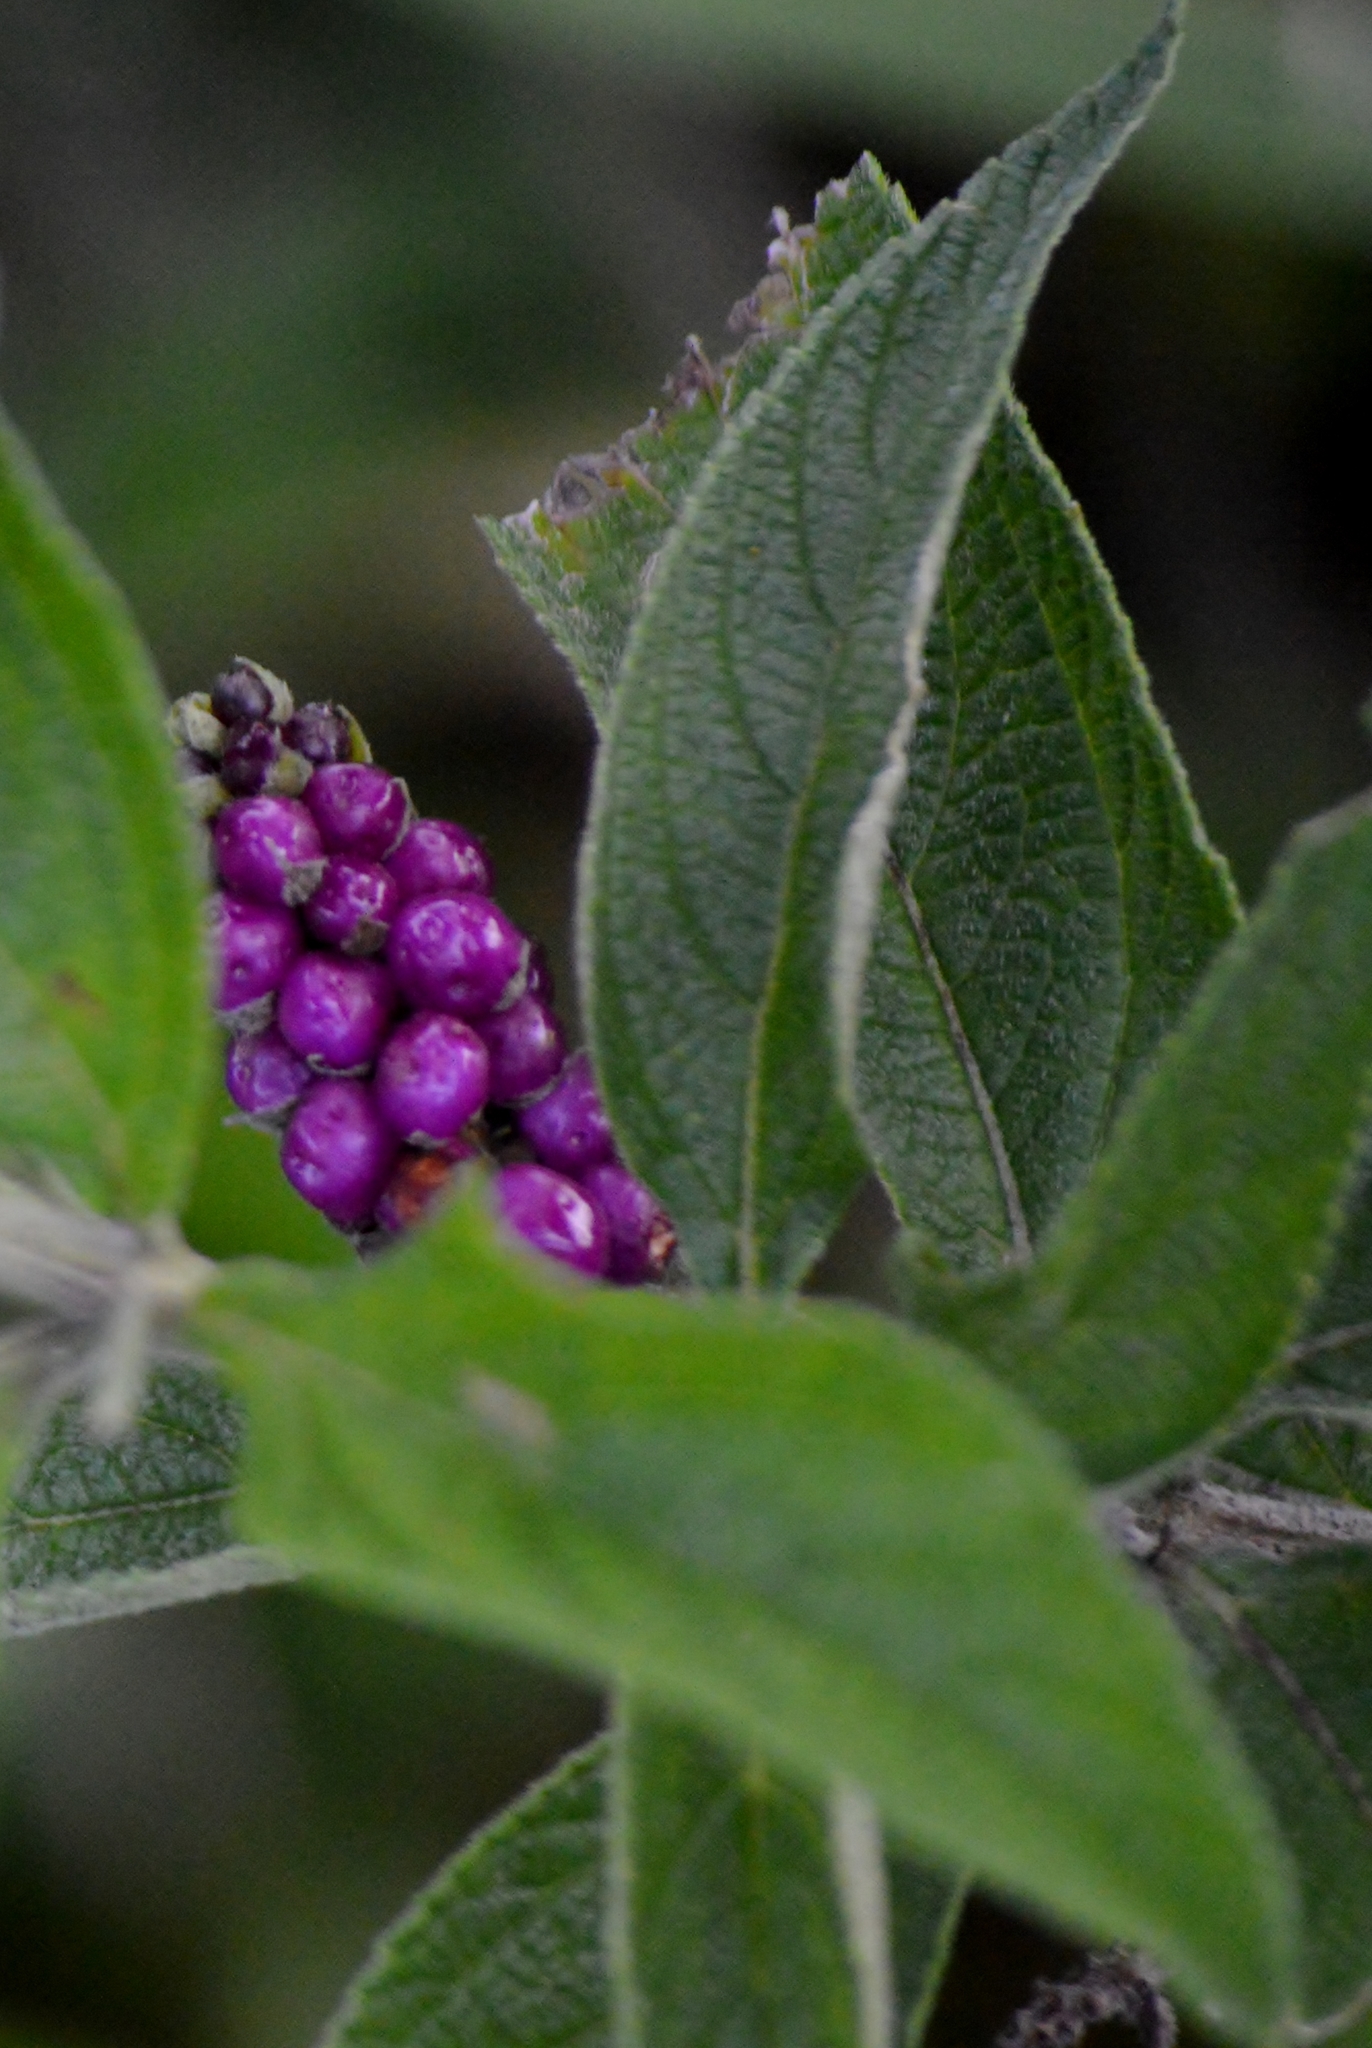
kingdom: Plantae
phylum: Tracheophyta
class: Magnoliopsida
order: Lamiales
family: Verbenaceae
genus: Lantana
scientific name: Lantana trifolia
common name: Sweet-sage
